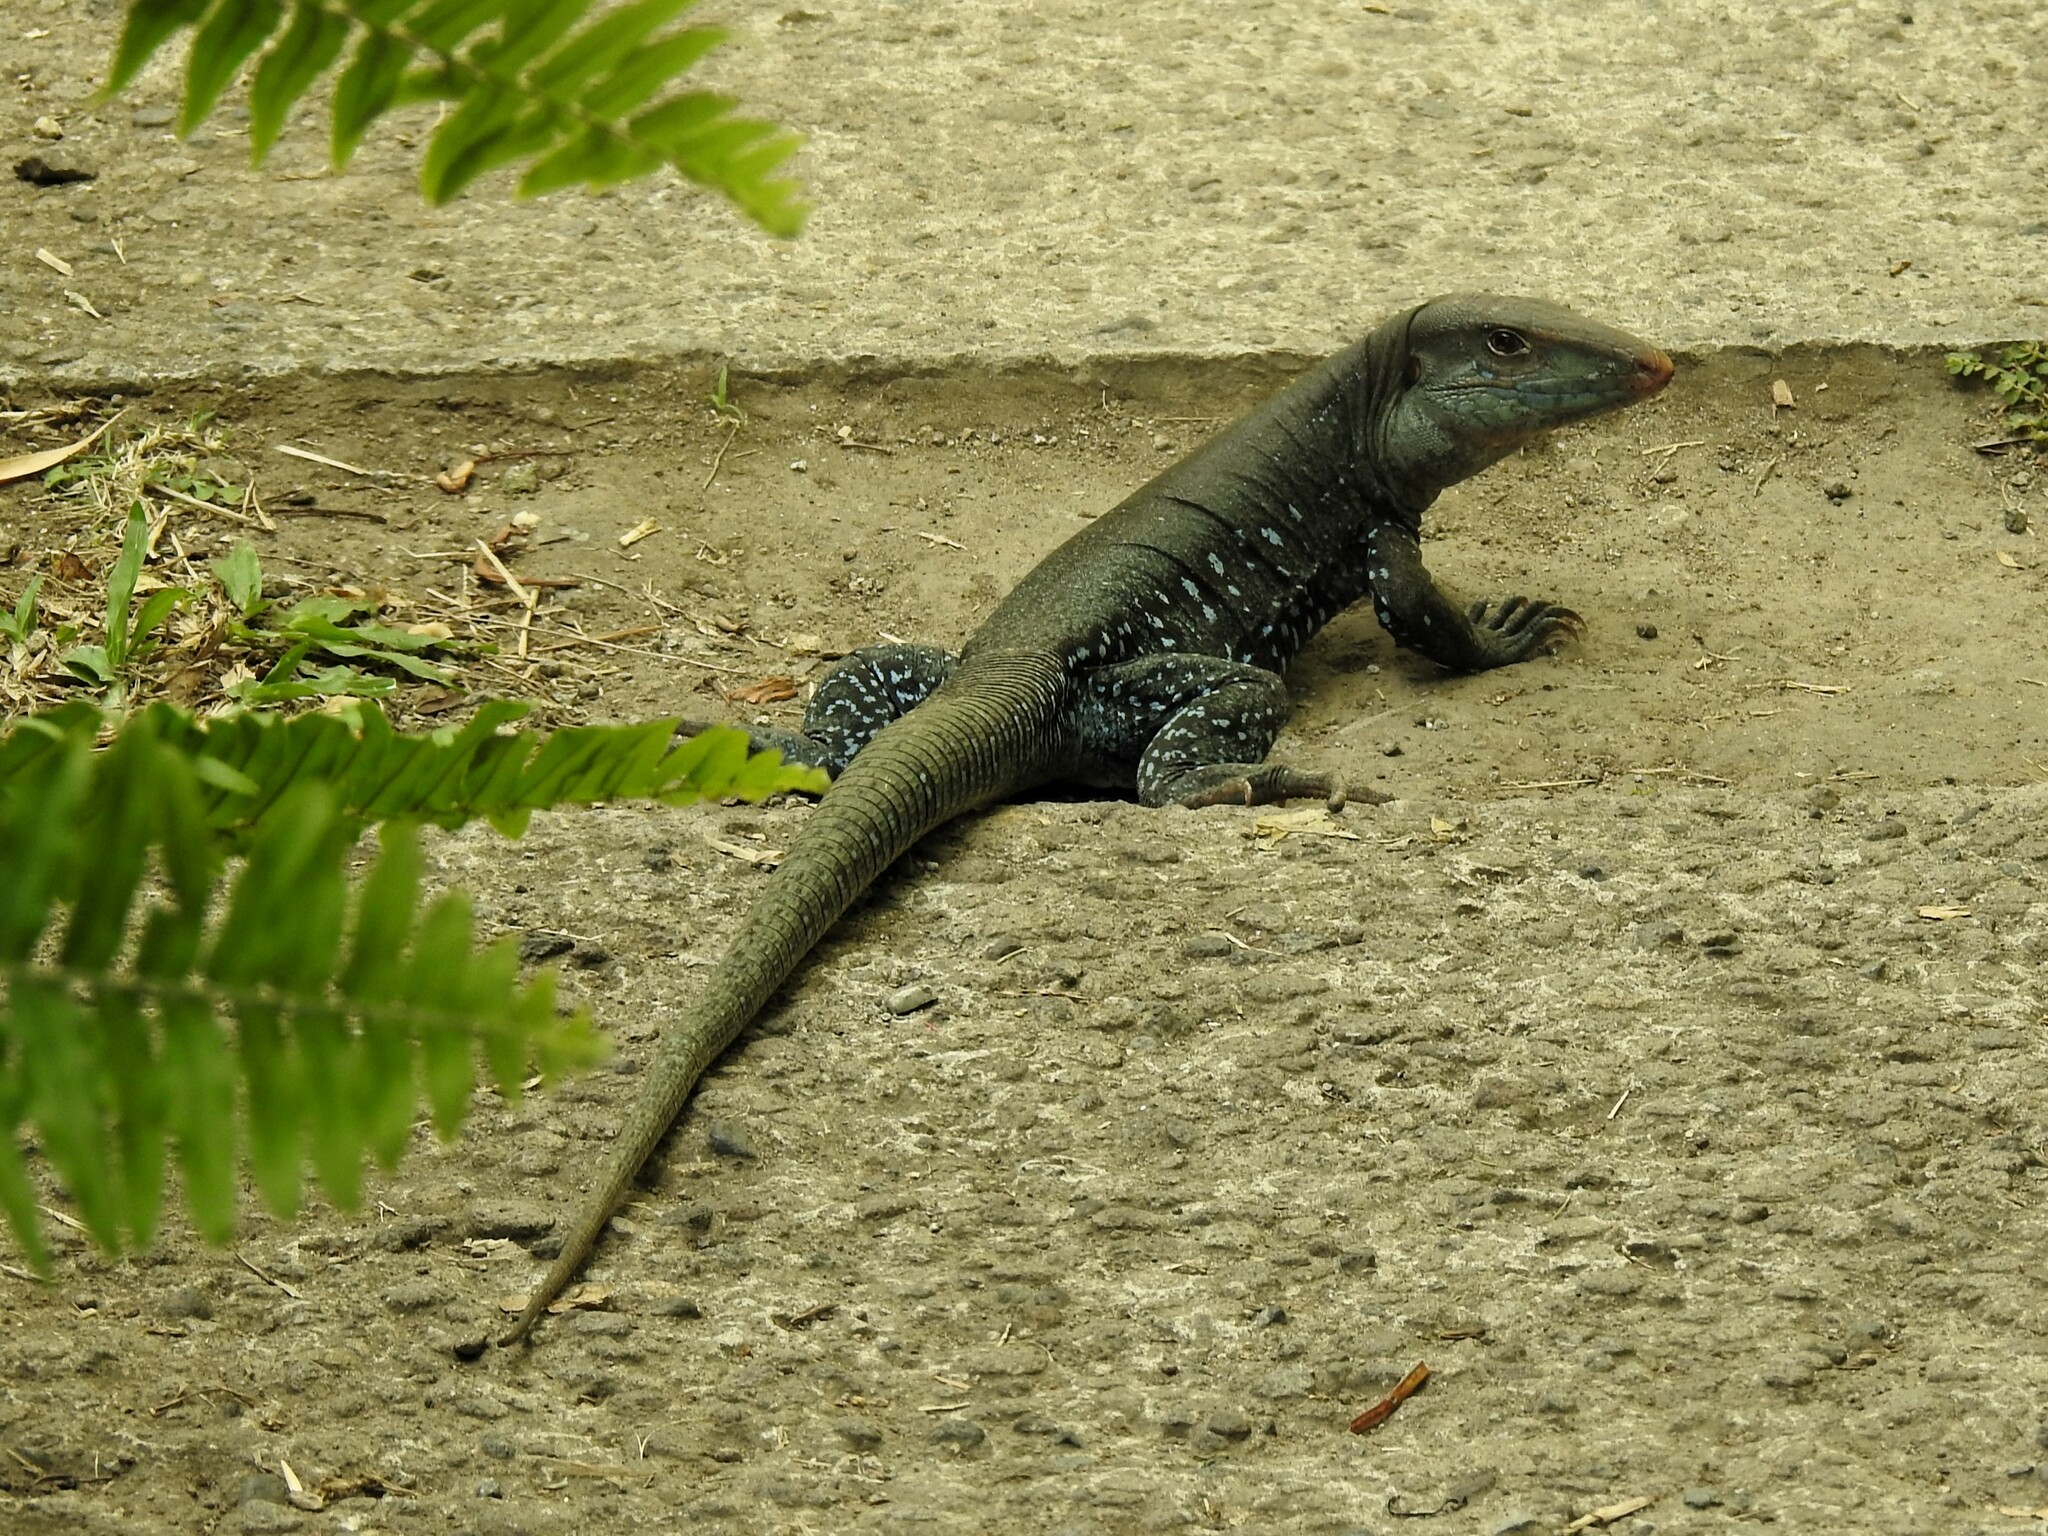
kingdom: Animalia
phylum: Chordata
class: Squamata
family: Teiidae
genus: Pholidoscelis
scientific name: Pholidoscelis fuscatus
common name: Dominican ameiva
